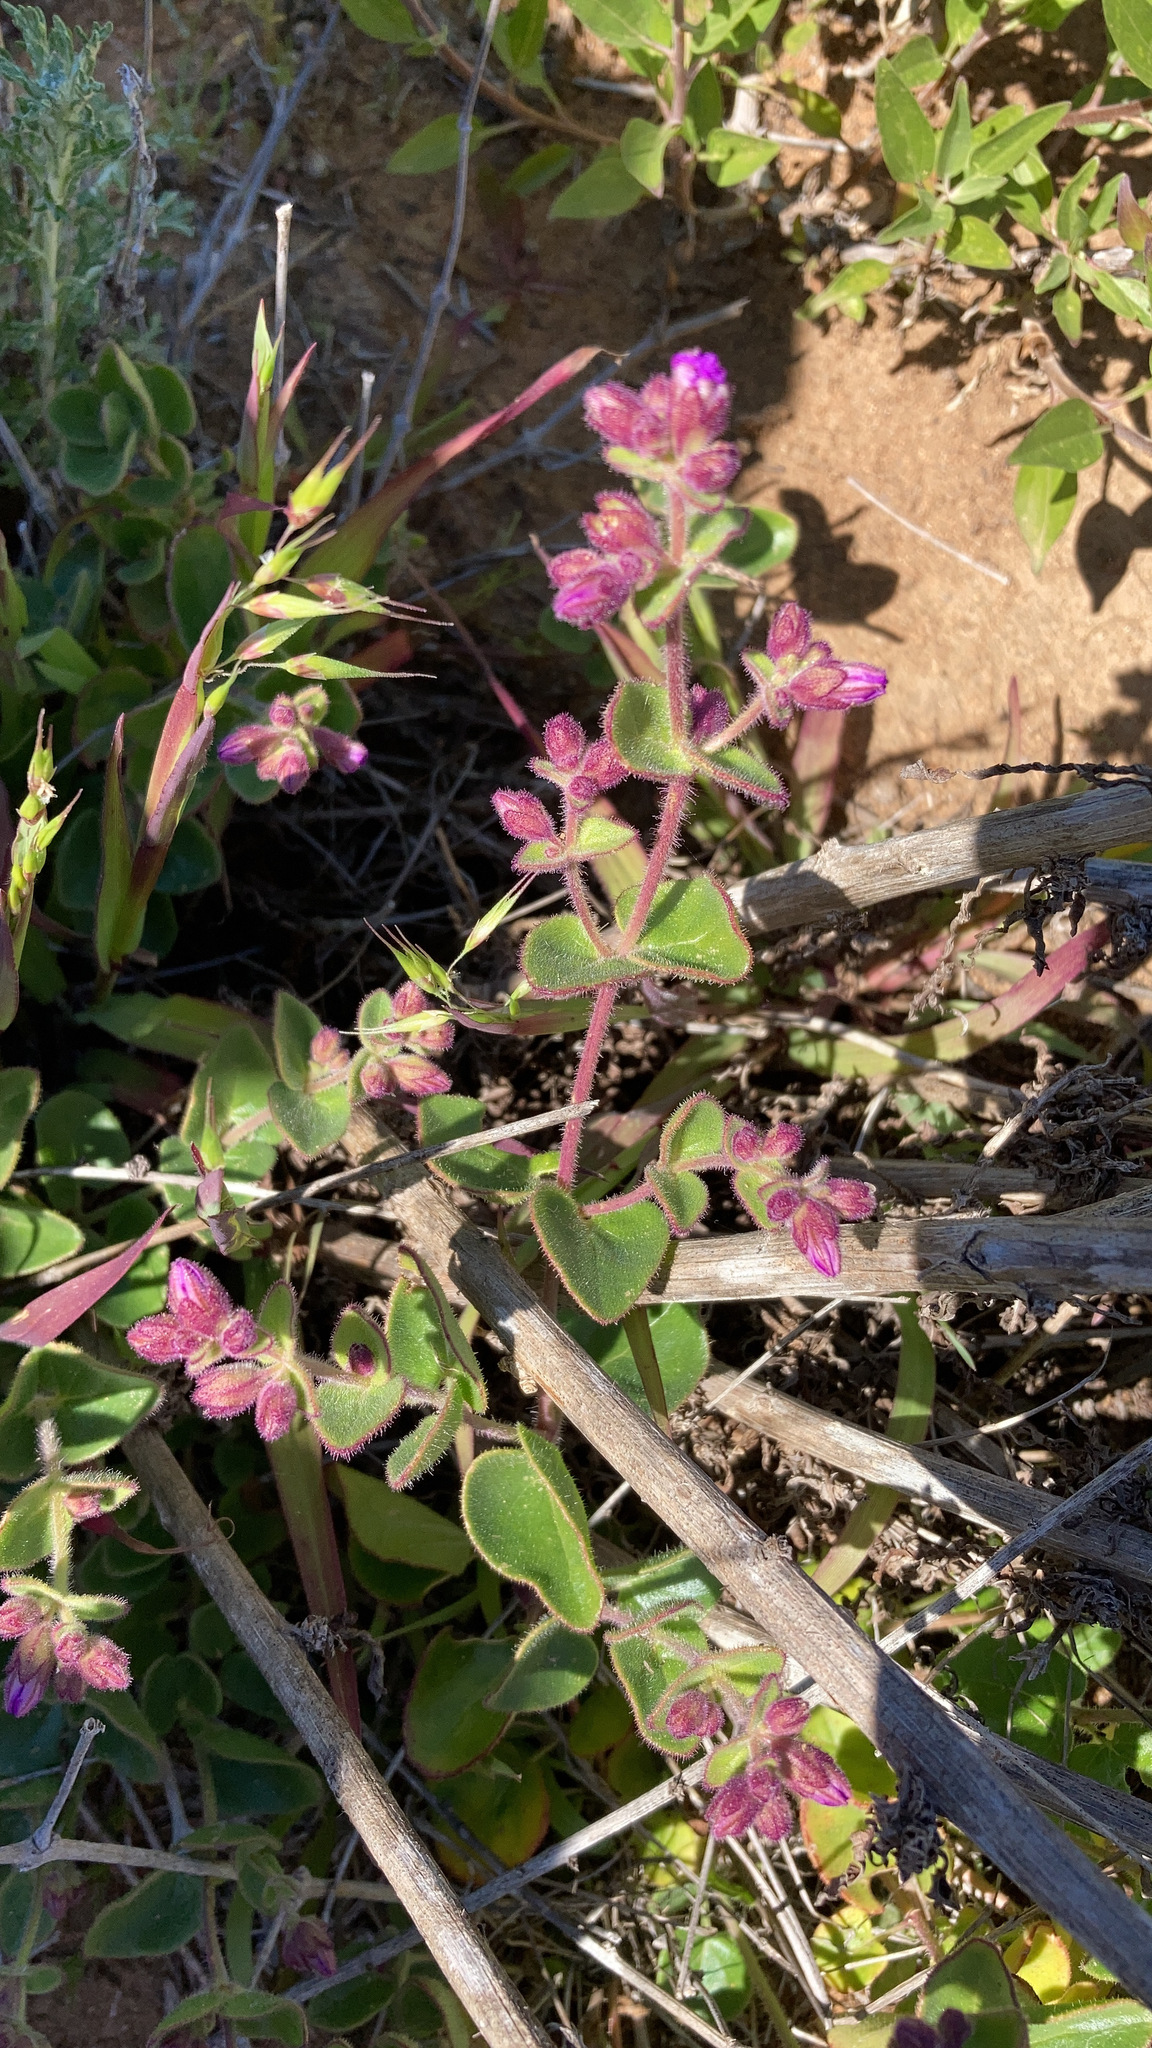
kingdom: Plantae
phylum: Tracheophyta
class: Magnoliopsida
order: Caryophyllales
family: Nyctaginaceae
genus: Mirabilis
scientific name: Mirabilis laevis
